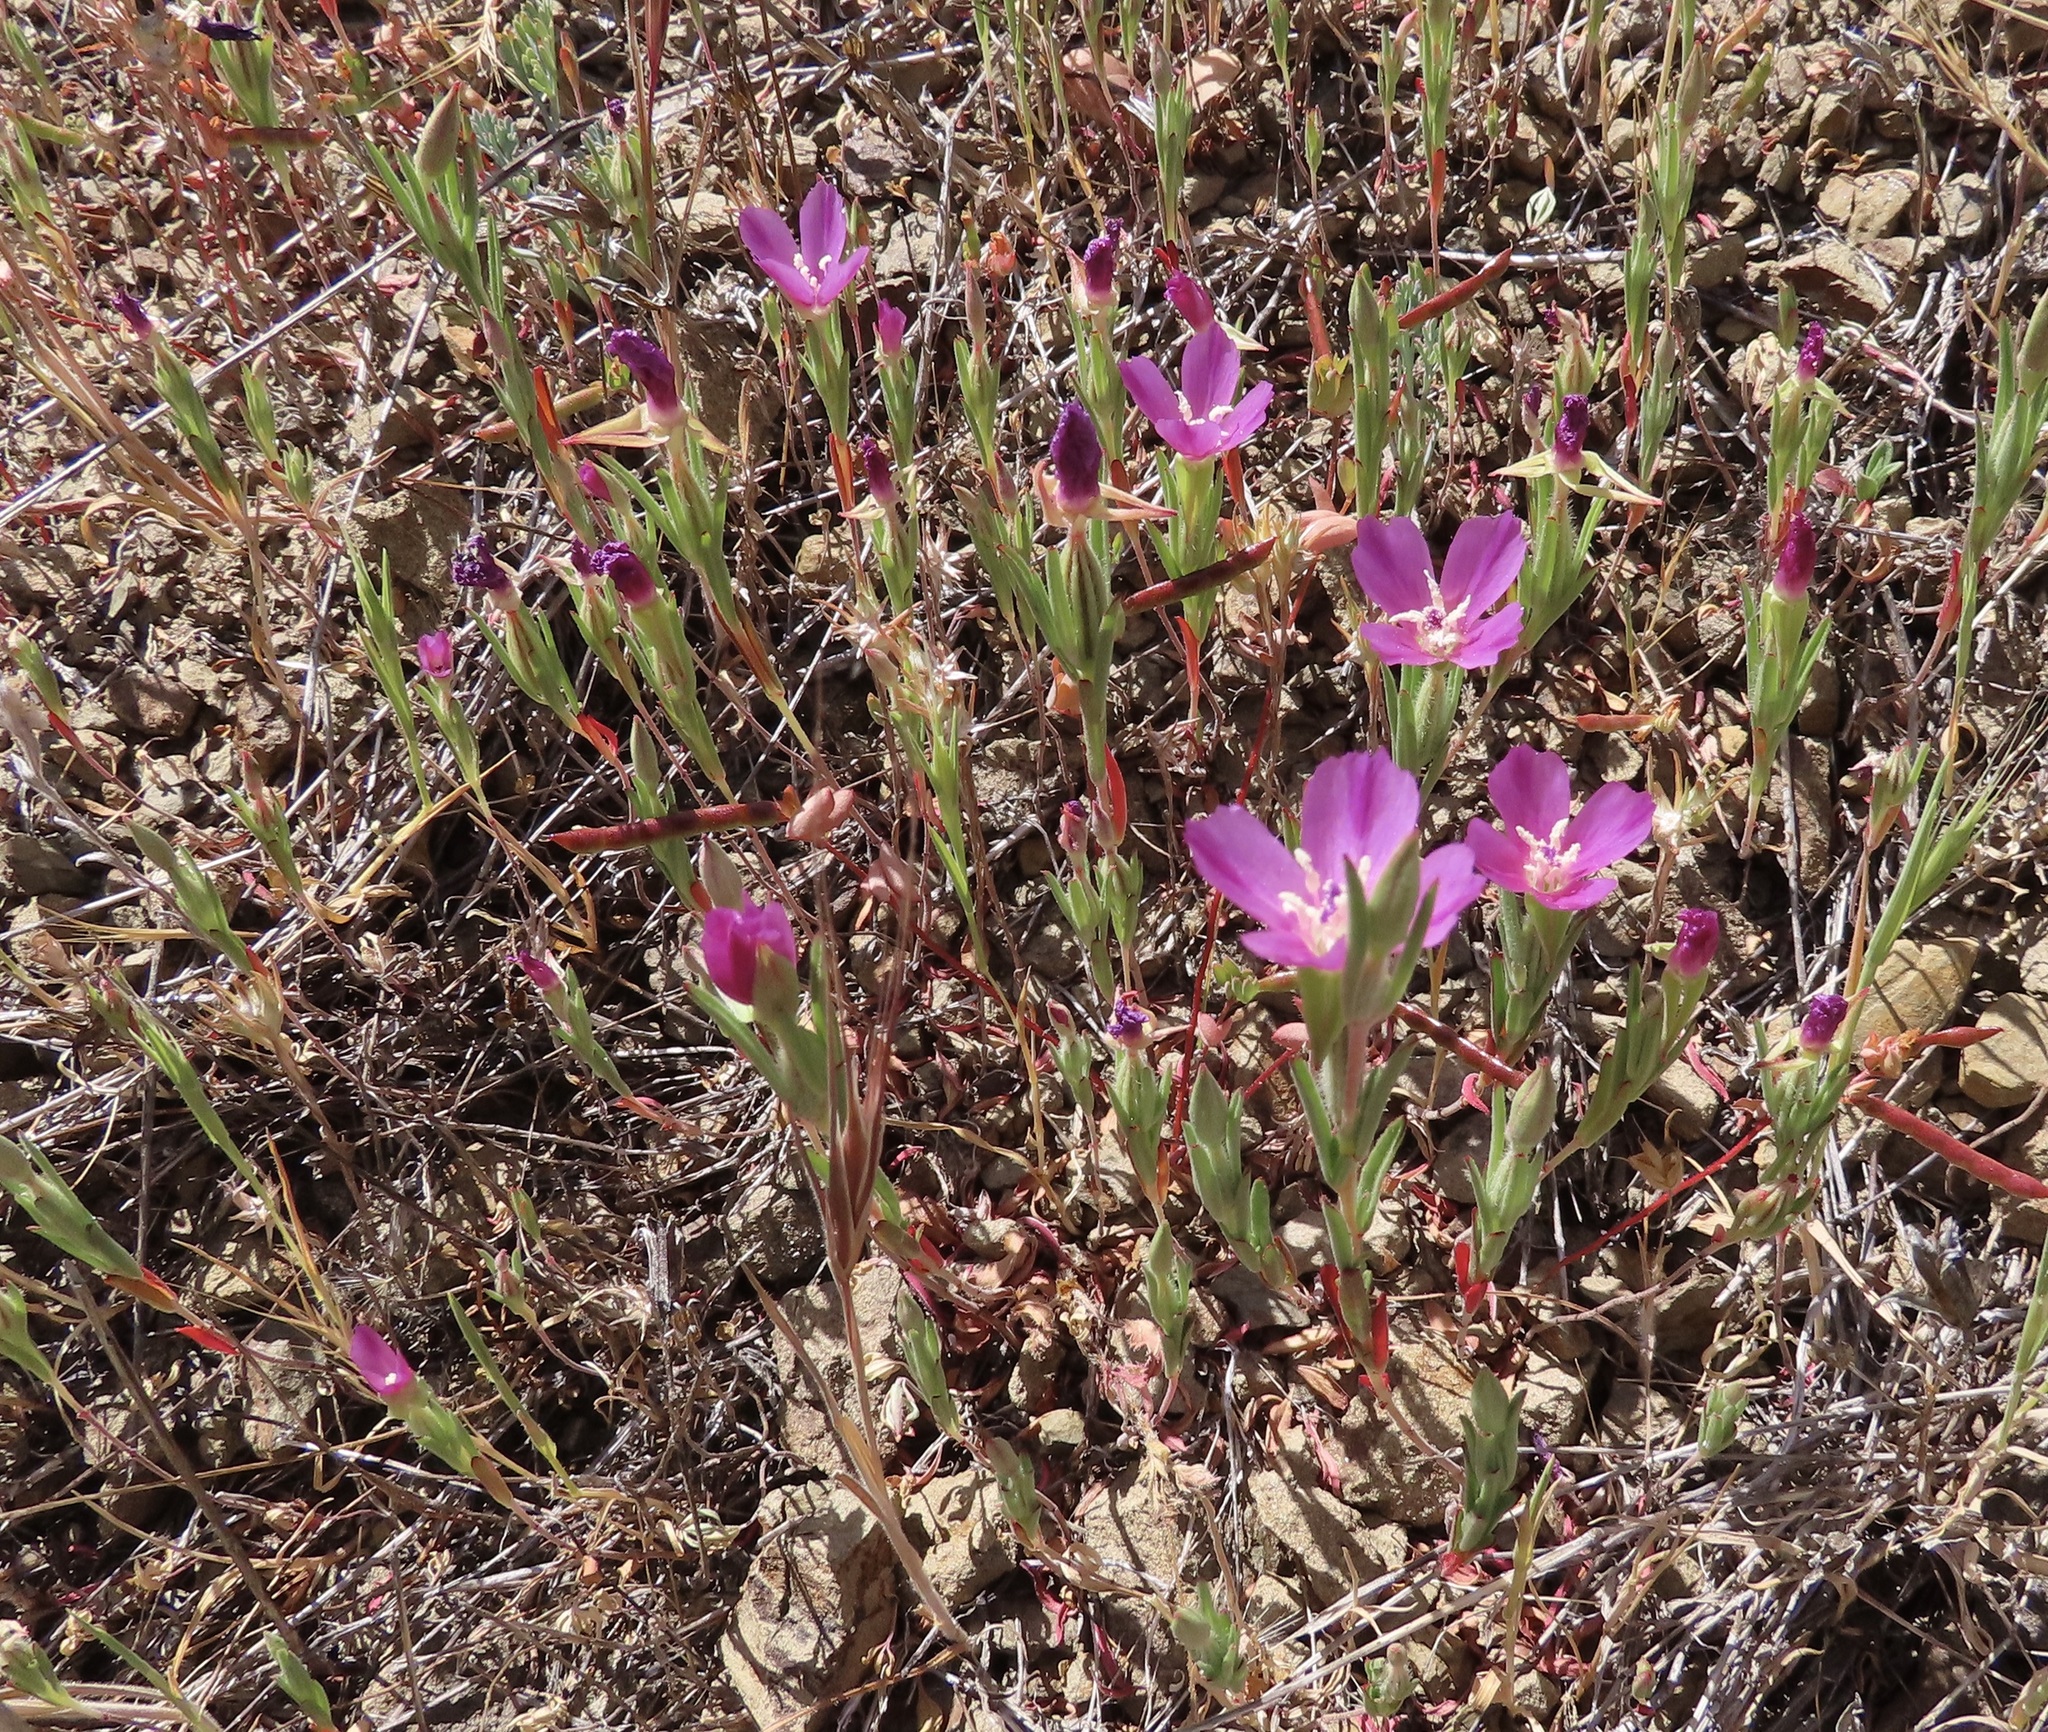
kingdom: Plantae
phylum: Tracheophyta
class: Magnoliopsida
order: Myrtales
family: Onagraceae
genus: Clarkia
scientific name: Clarkia purpurea
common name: Purple clarkia
